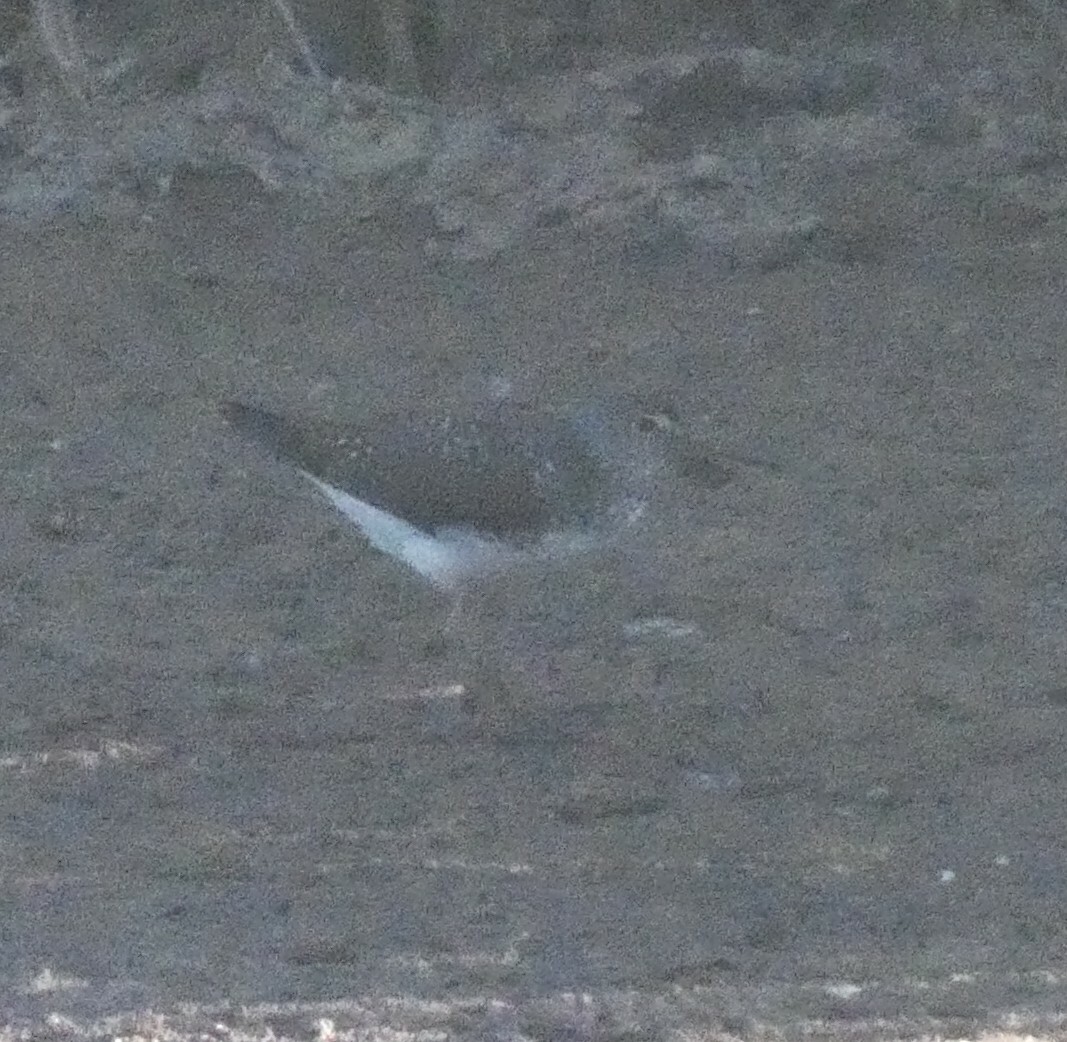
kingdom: Animalia
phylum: Chordata
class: Aves
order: Charadriiformes
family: Scolopacidae
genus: Tringa
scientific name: Tringa ochropus
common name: Green sandpiper
